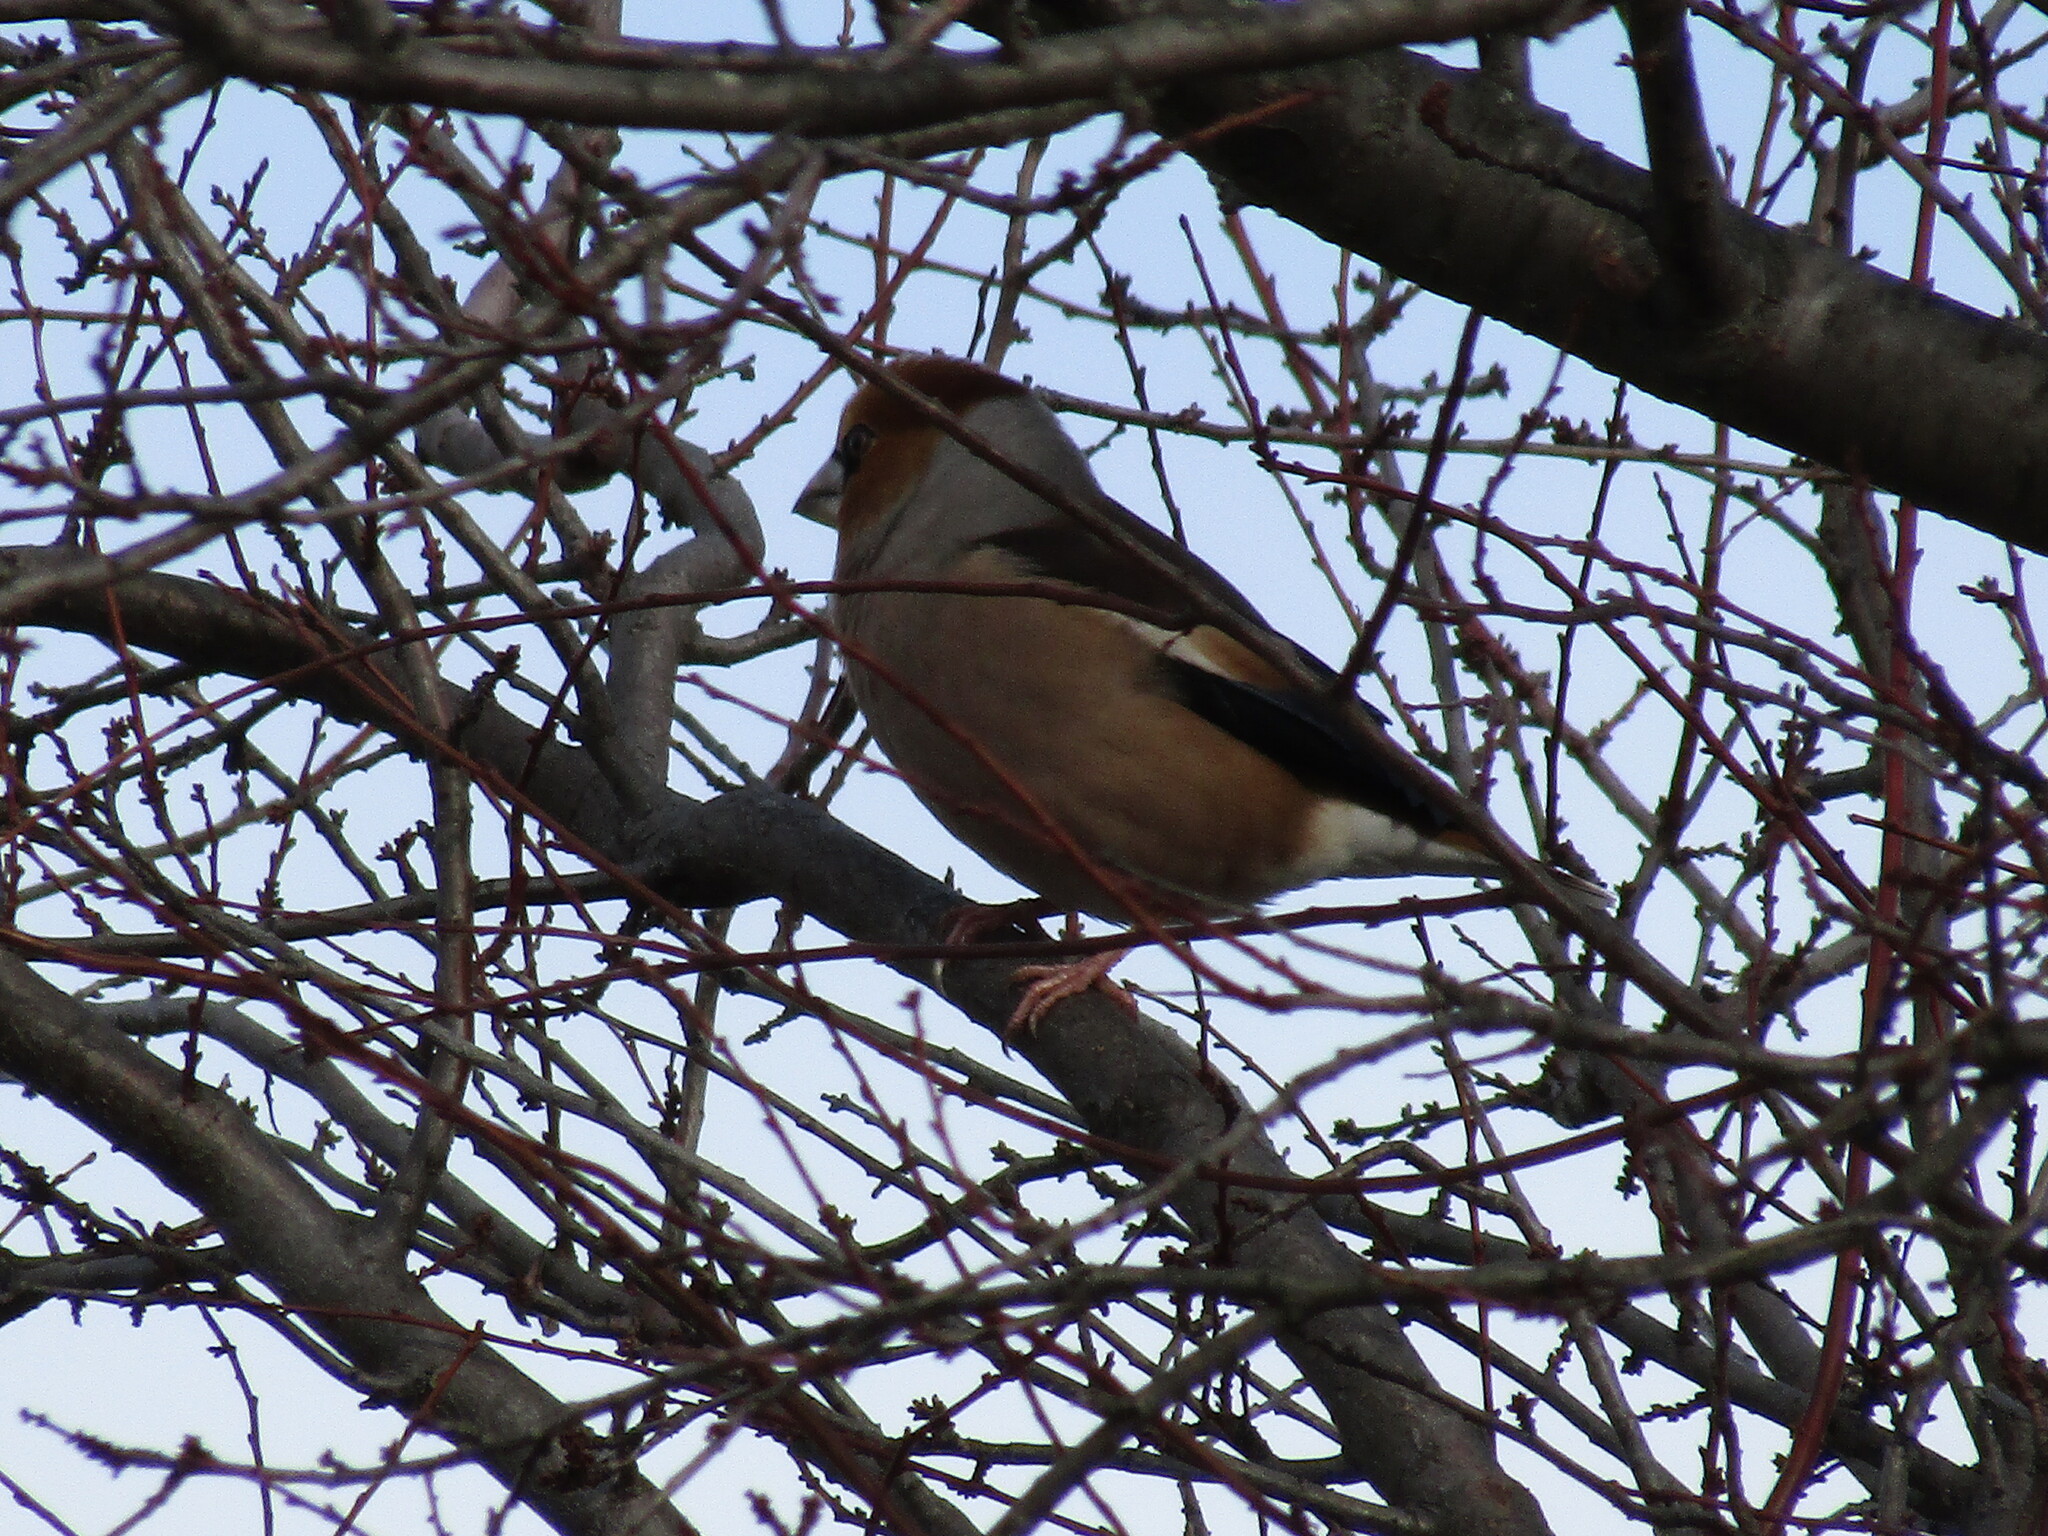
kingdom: Animalia
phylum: Chordata
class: Aves
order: Passeriformes
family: Fringillidae
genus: Coccothraustes
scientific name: Coccothraustes coccothraustes
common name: Hawfinch
